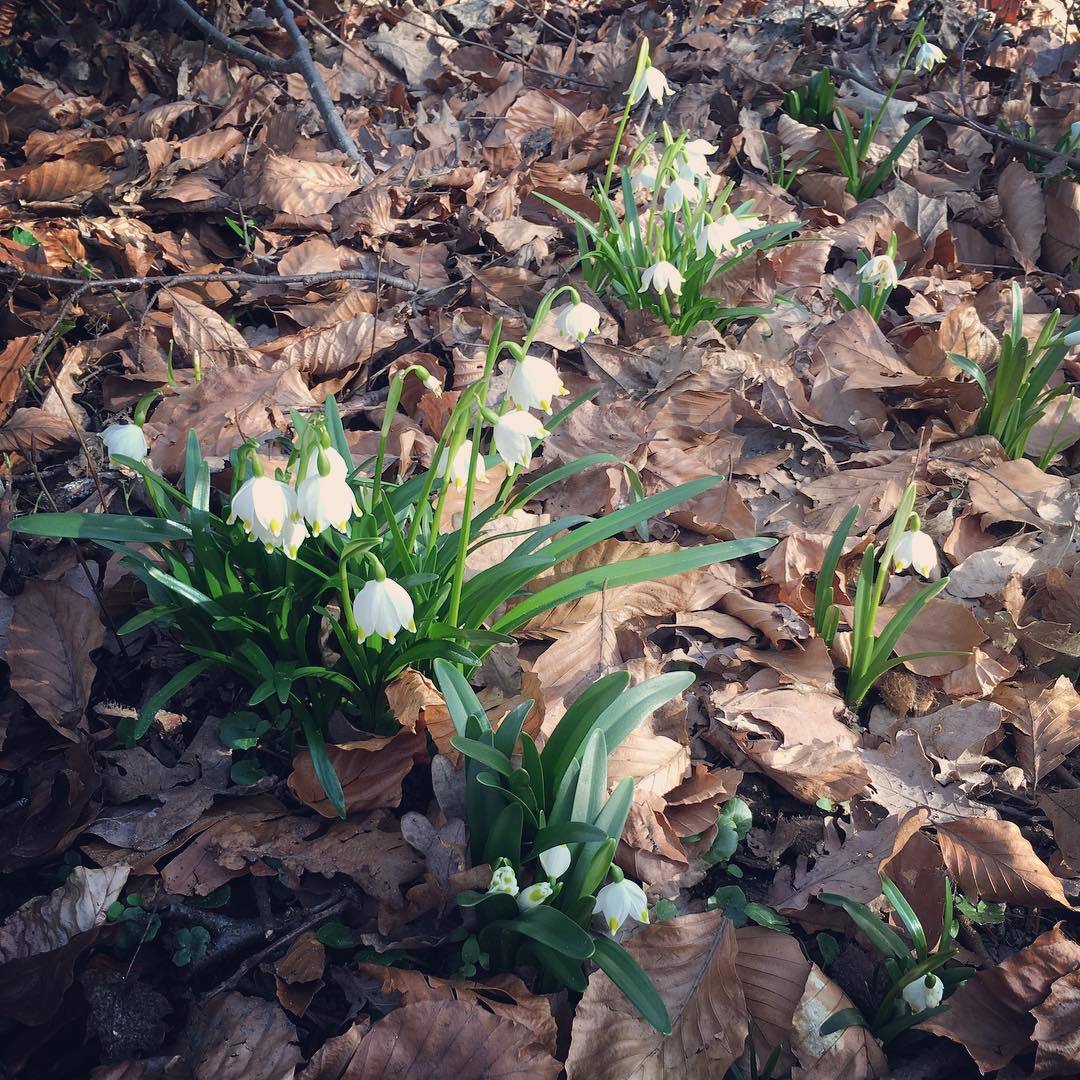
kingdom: Plantae
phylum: Tracheophyta
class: Liliopsida
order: Asparagales
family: Amaryllidaceae
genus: Leucojum
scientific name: Leucojum vernum
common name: Spring snowflake
